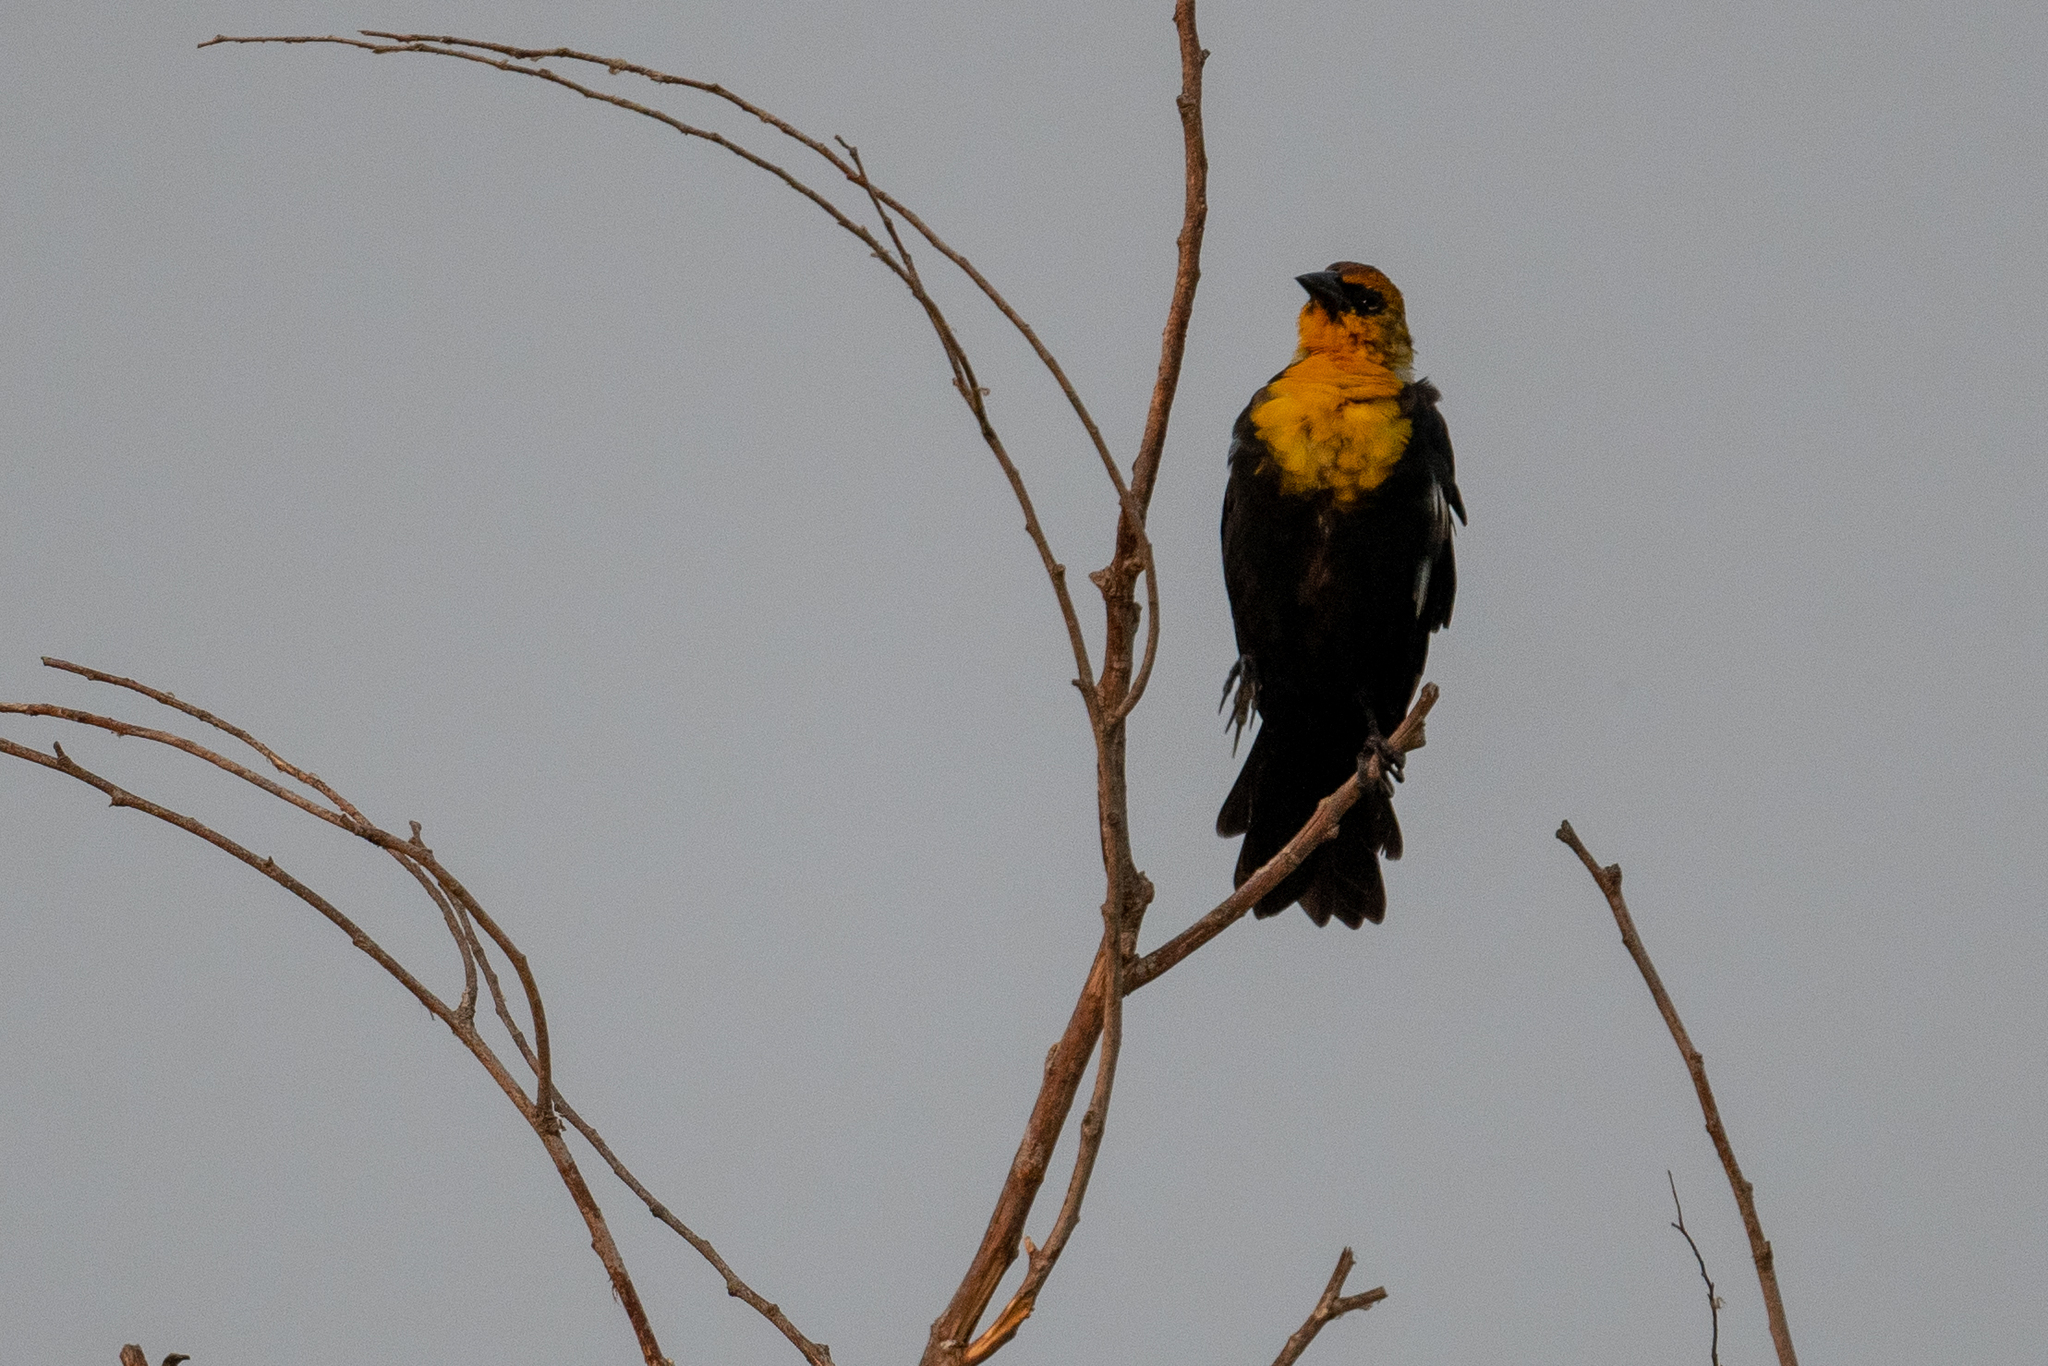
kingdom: Animalia
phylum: Chordata
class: Aves
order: Passeriformes
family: Icteridae
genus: Xanthocephalus
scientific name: Xanthocephalus xanthocephalus
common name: Yellow-headed blackbird
